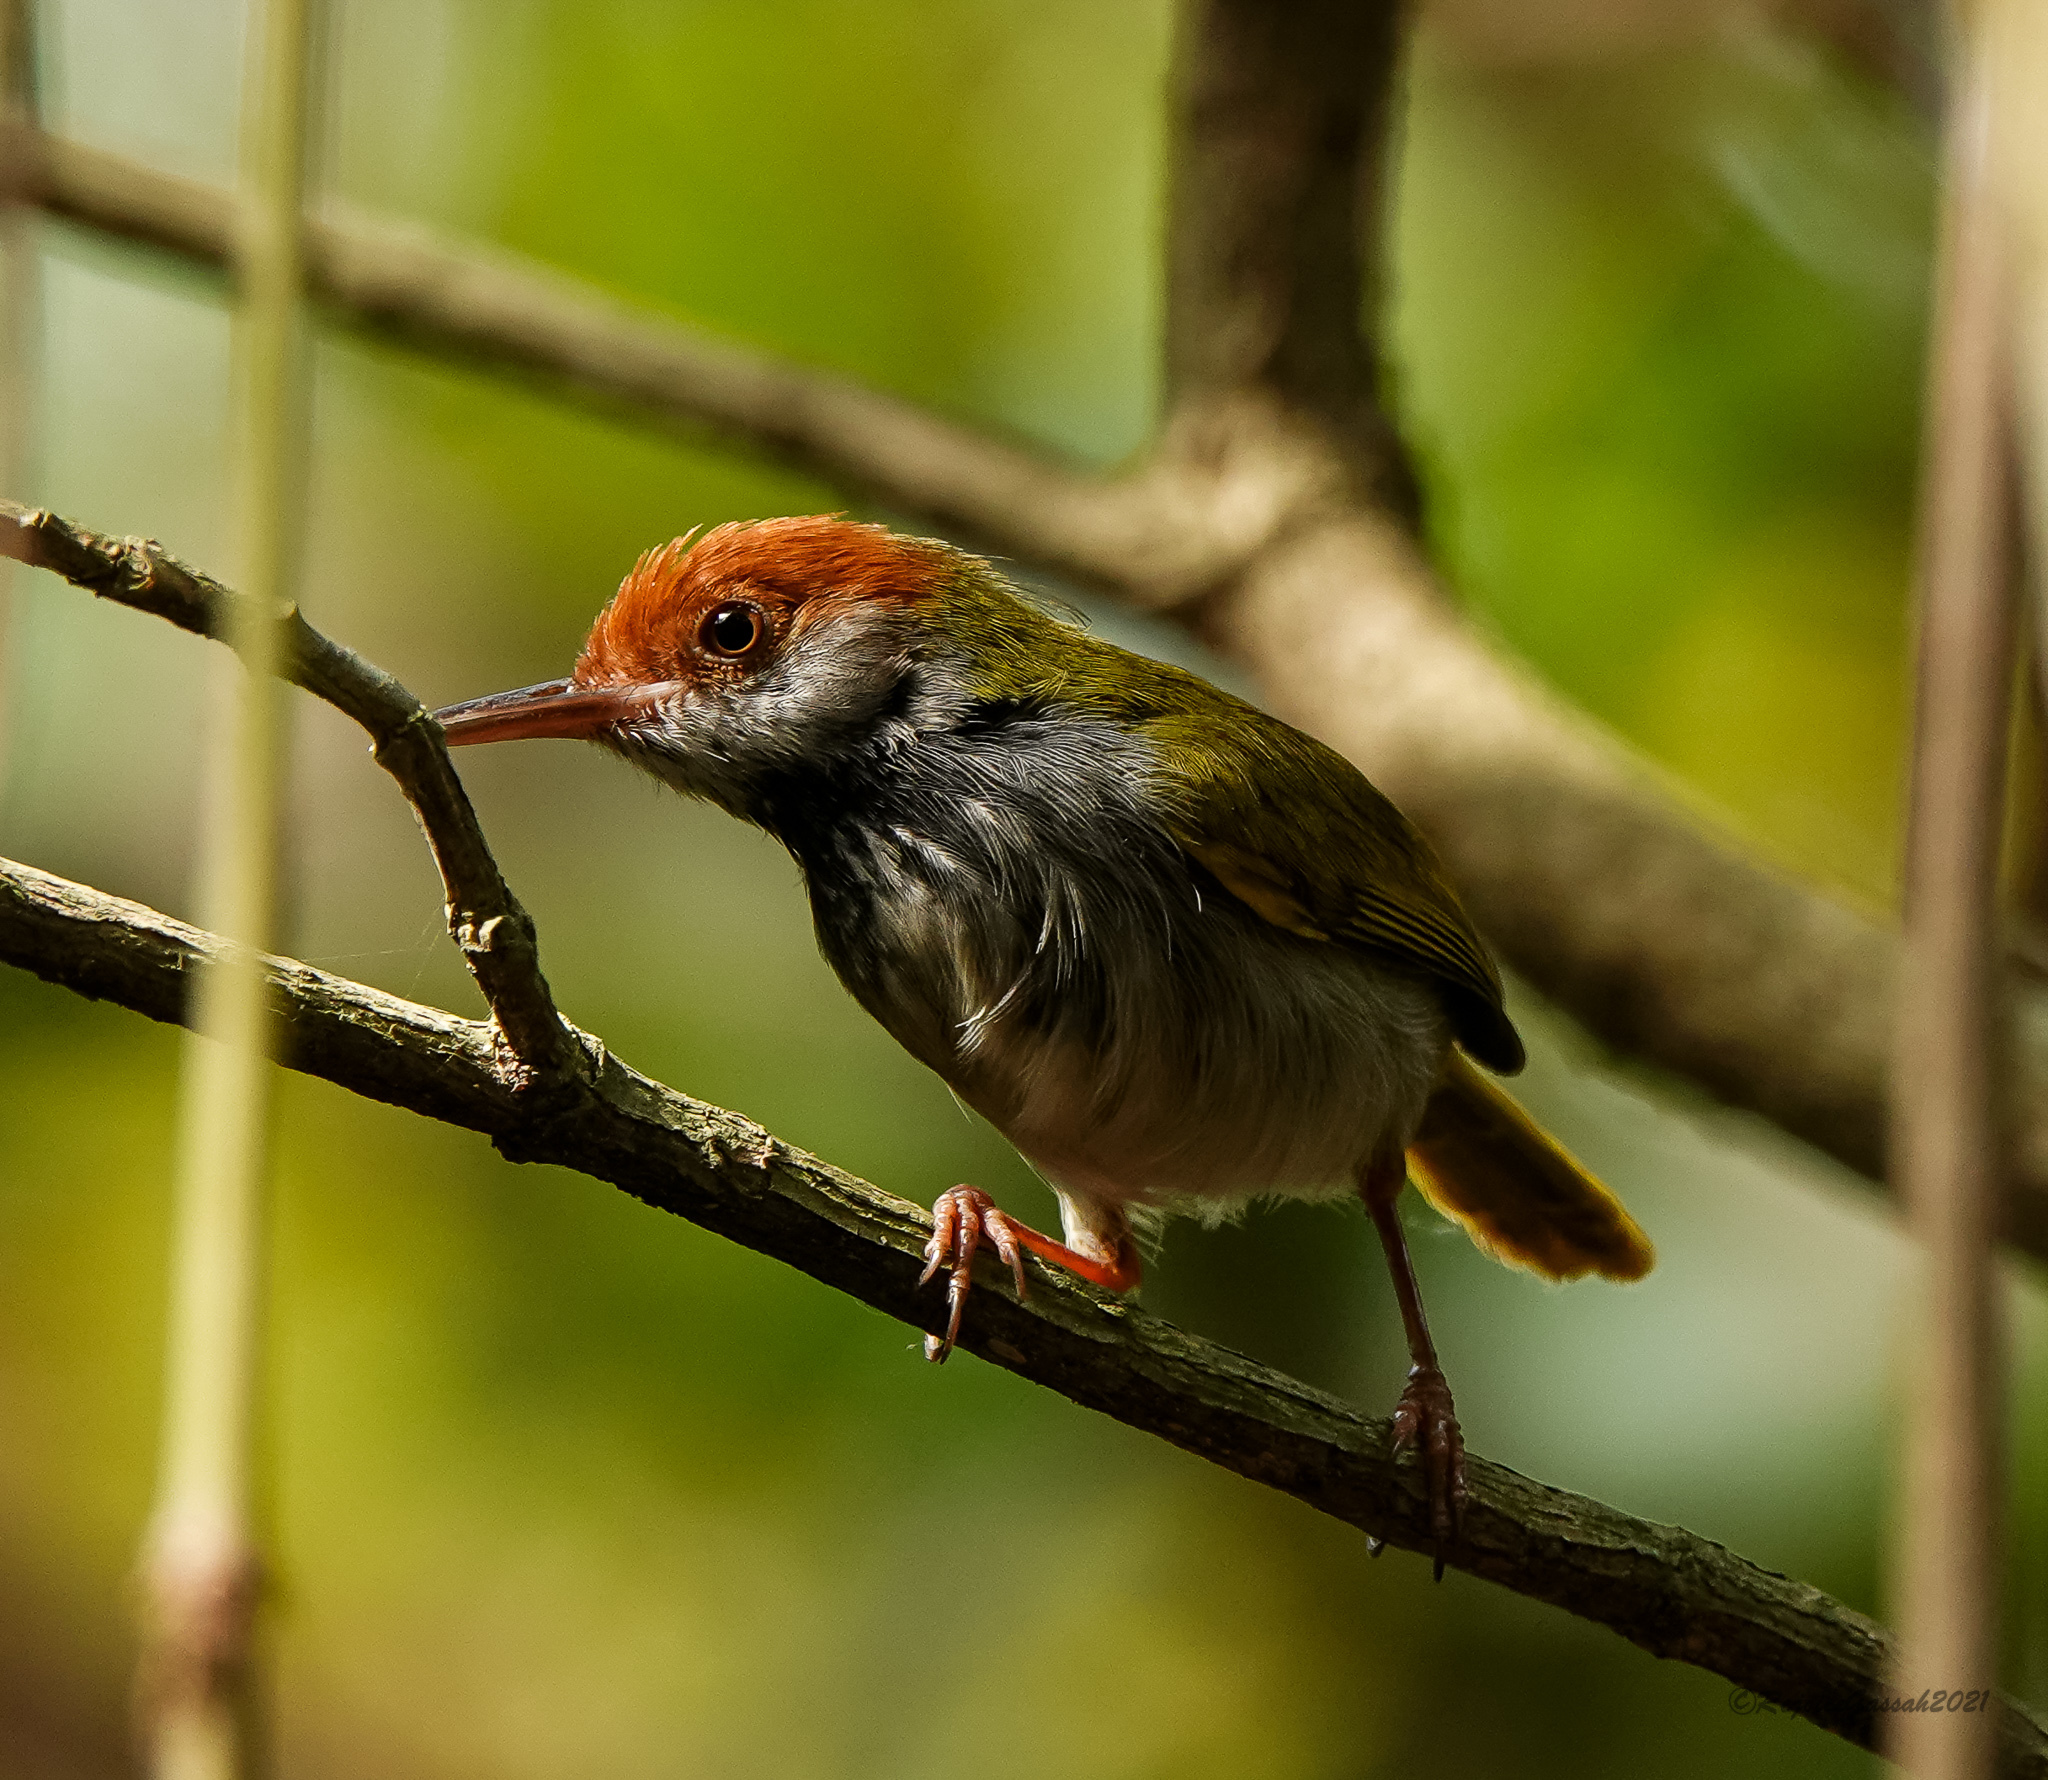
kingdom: Animalia
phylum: Chordata
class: Aves
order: Passeriformes
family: Cisticolidae
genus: Orthotomus
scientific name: Orthotomus atrogularis
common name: Dark-necked tailorbird
